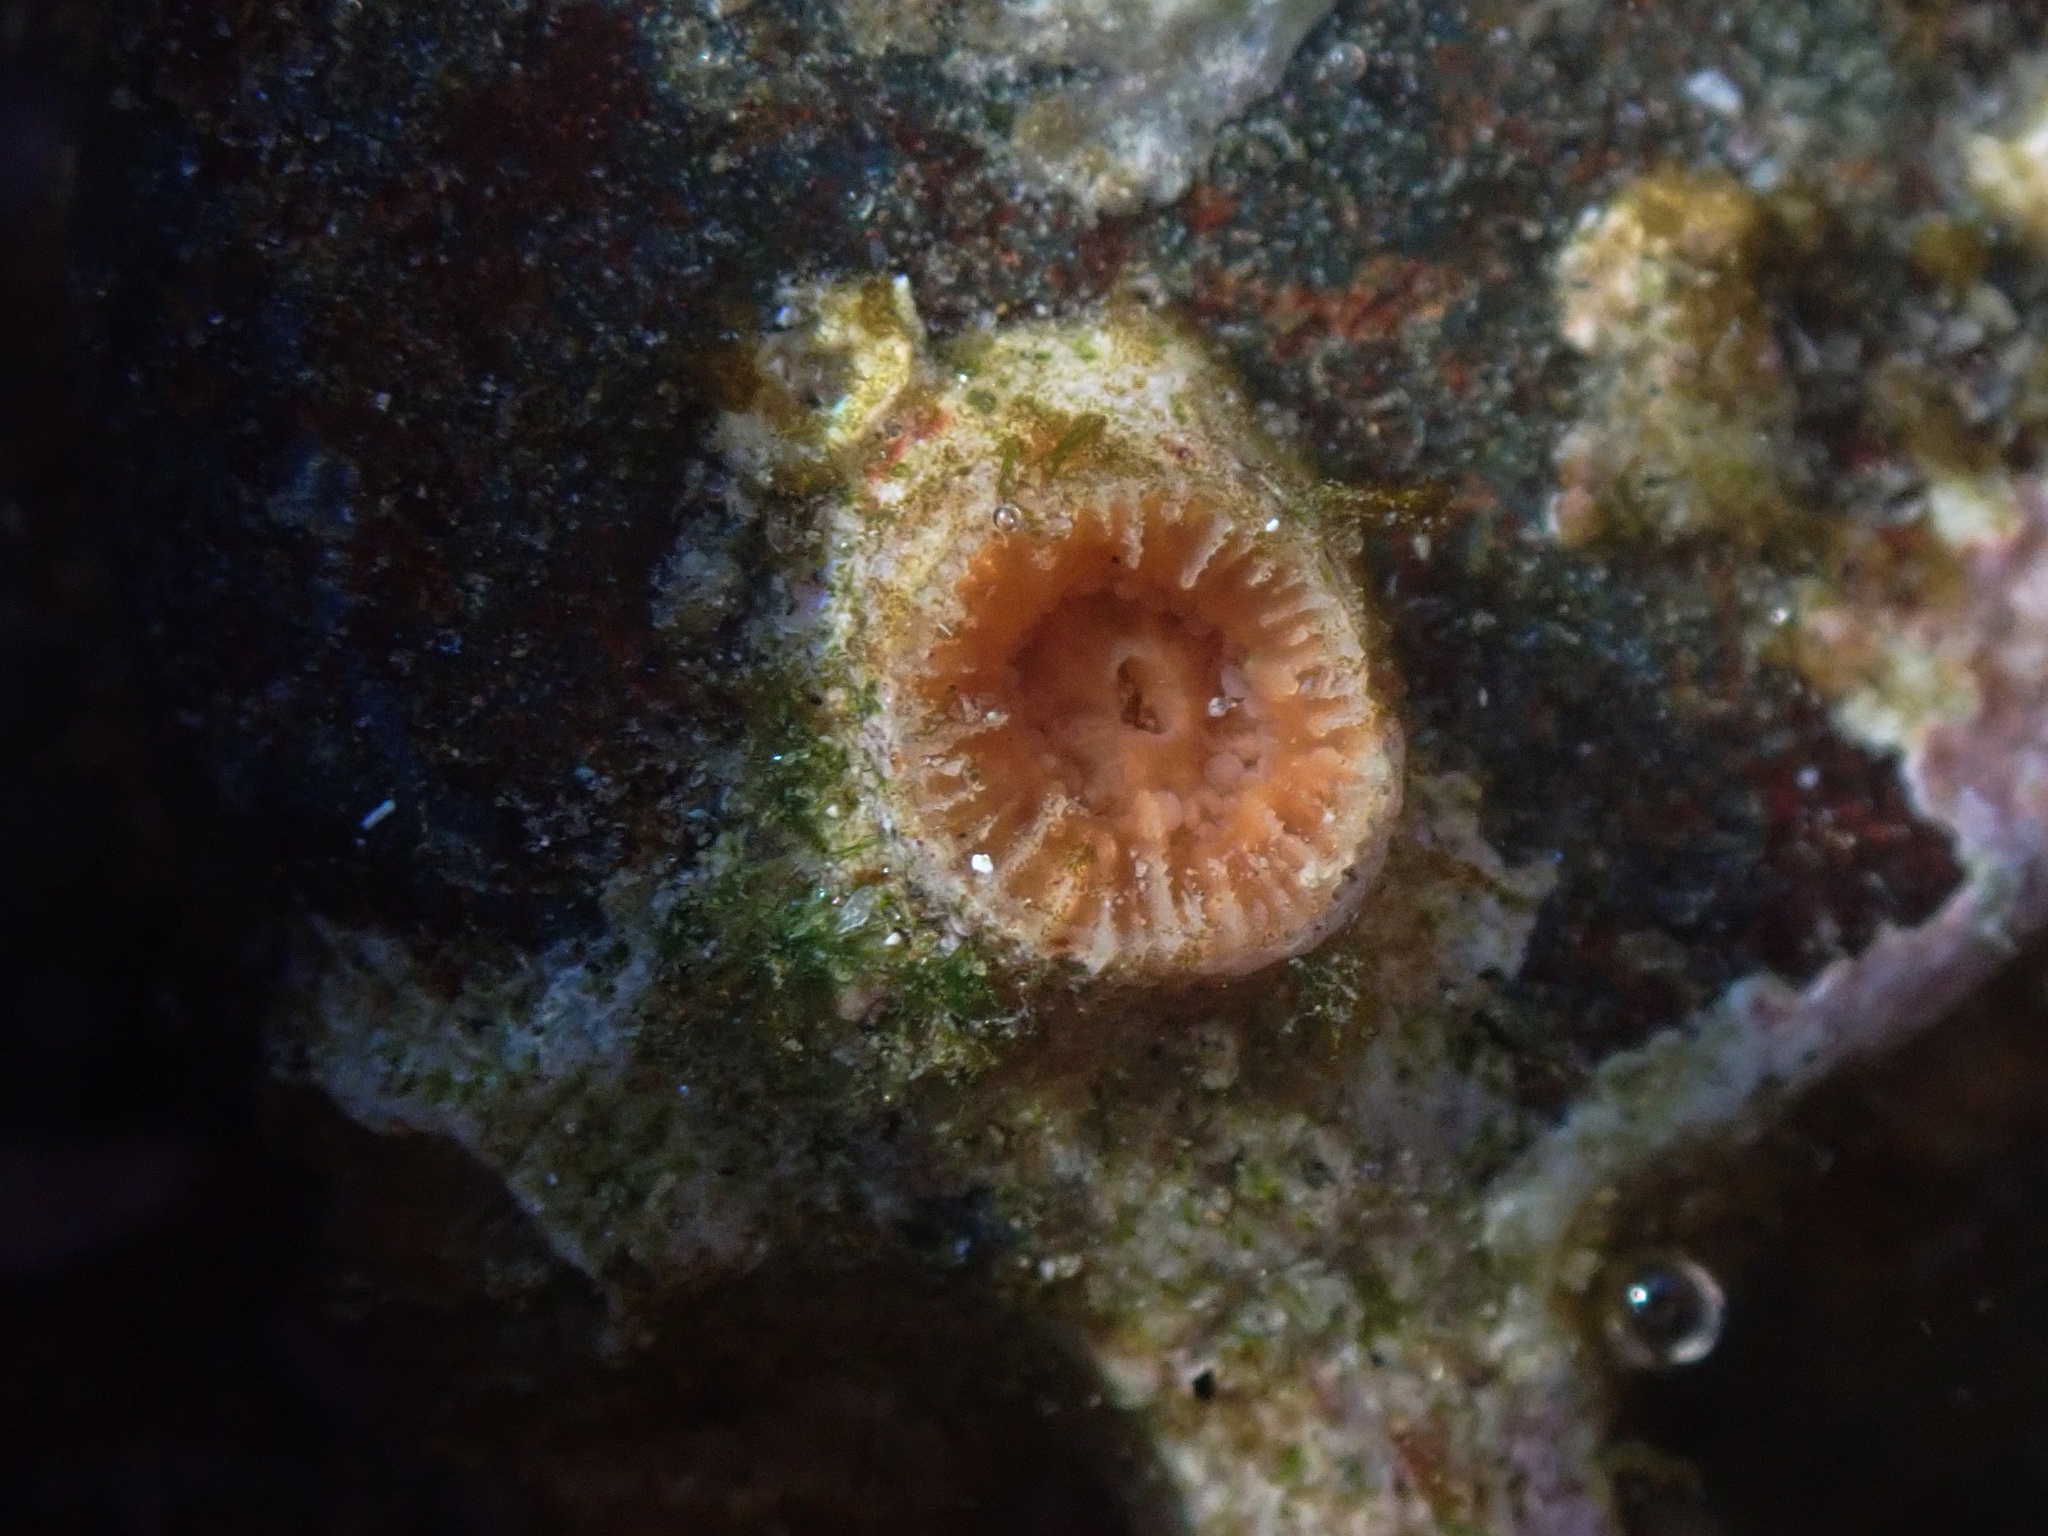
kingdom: Animalia
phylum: Cnidaria
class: Anthozoa
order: Scleractinia
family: Astrangiidae
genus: Astrangia
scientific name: Astrangia haimei
